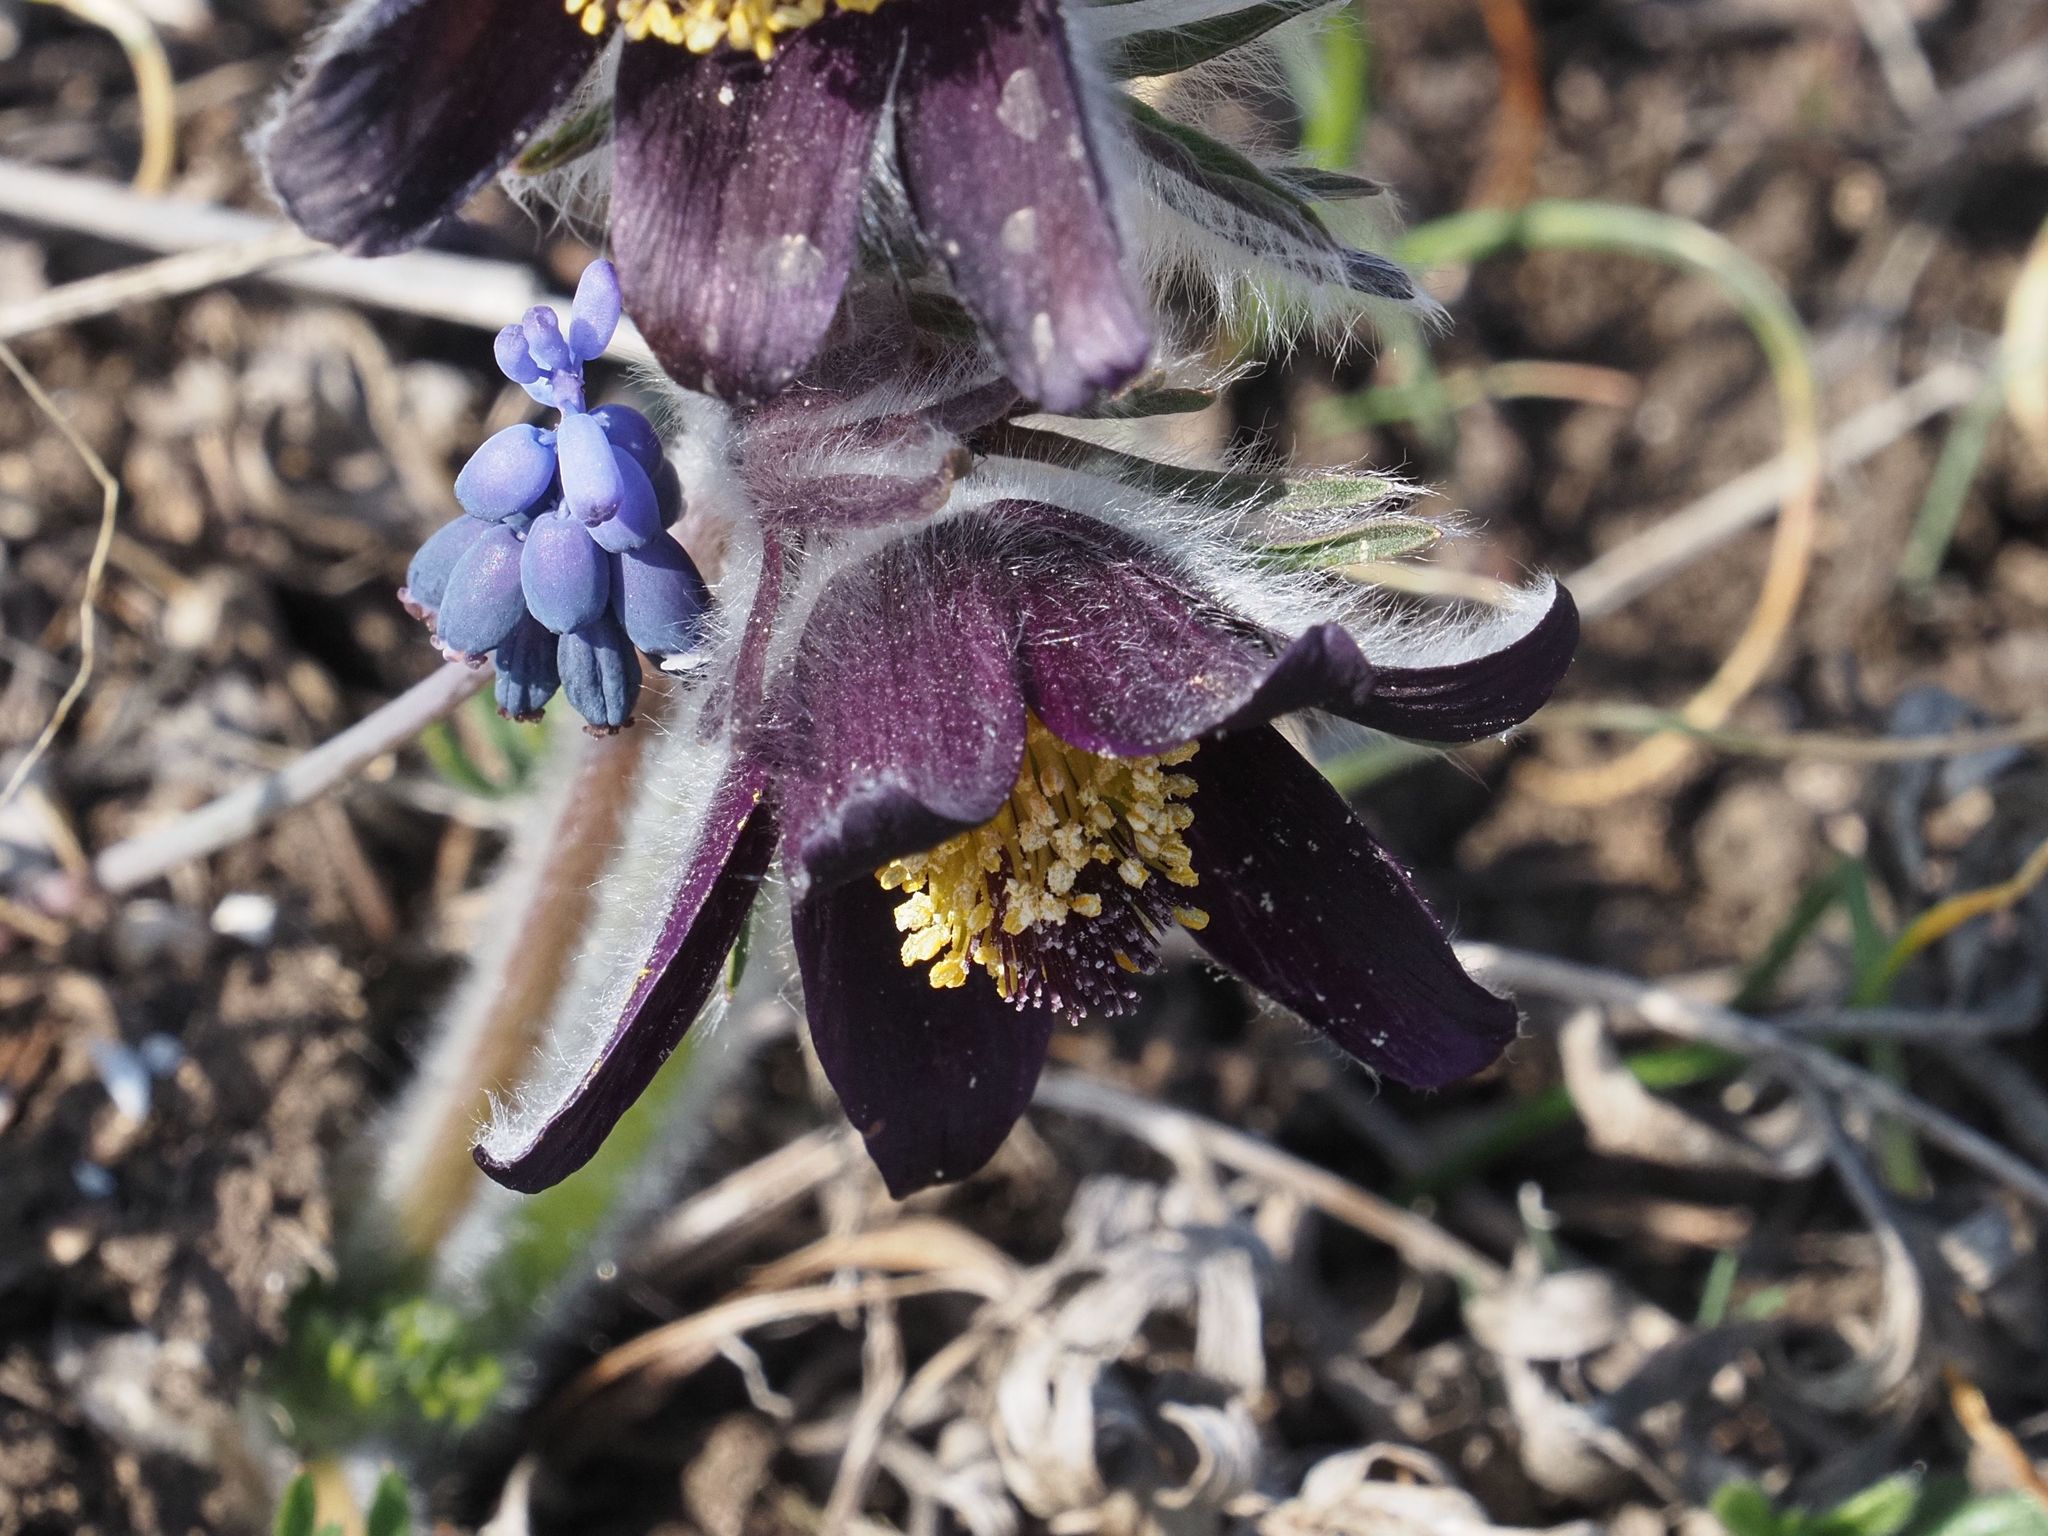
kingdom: Plantae
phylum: Tracheophyta
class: Magnoliopsida
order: Ranunculales
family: Ranunculaceae
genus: Pulsatilla
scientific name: Pulsatilla pratensis
